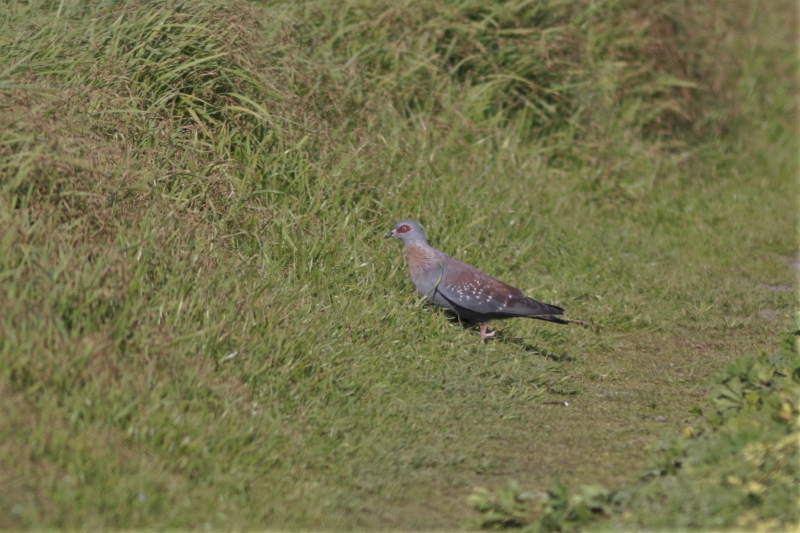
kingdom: Animalia
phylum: Chordata
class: Aves
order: Columbiformes
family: Columbidae
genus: Columba
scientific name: Columba guinea
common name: Speckled pigeon
